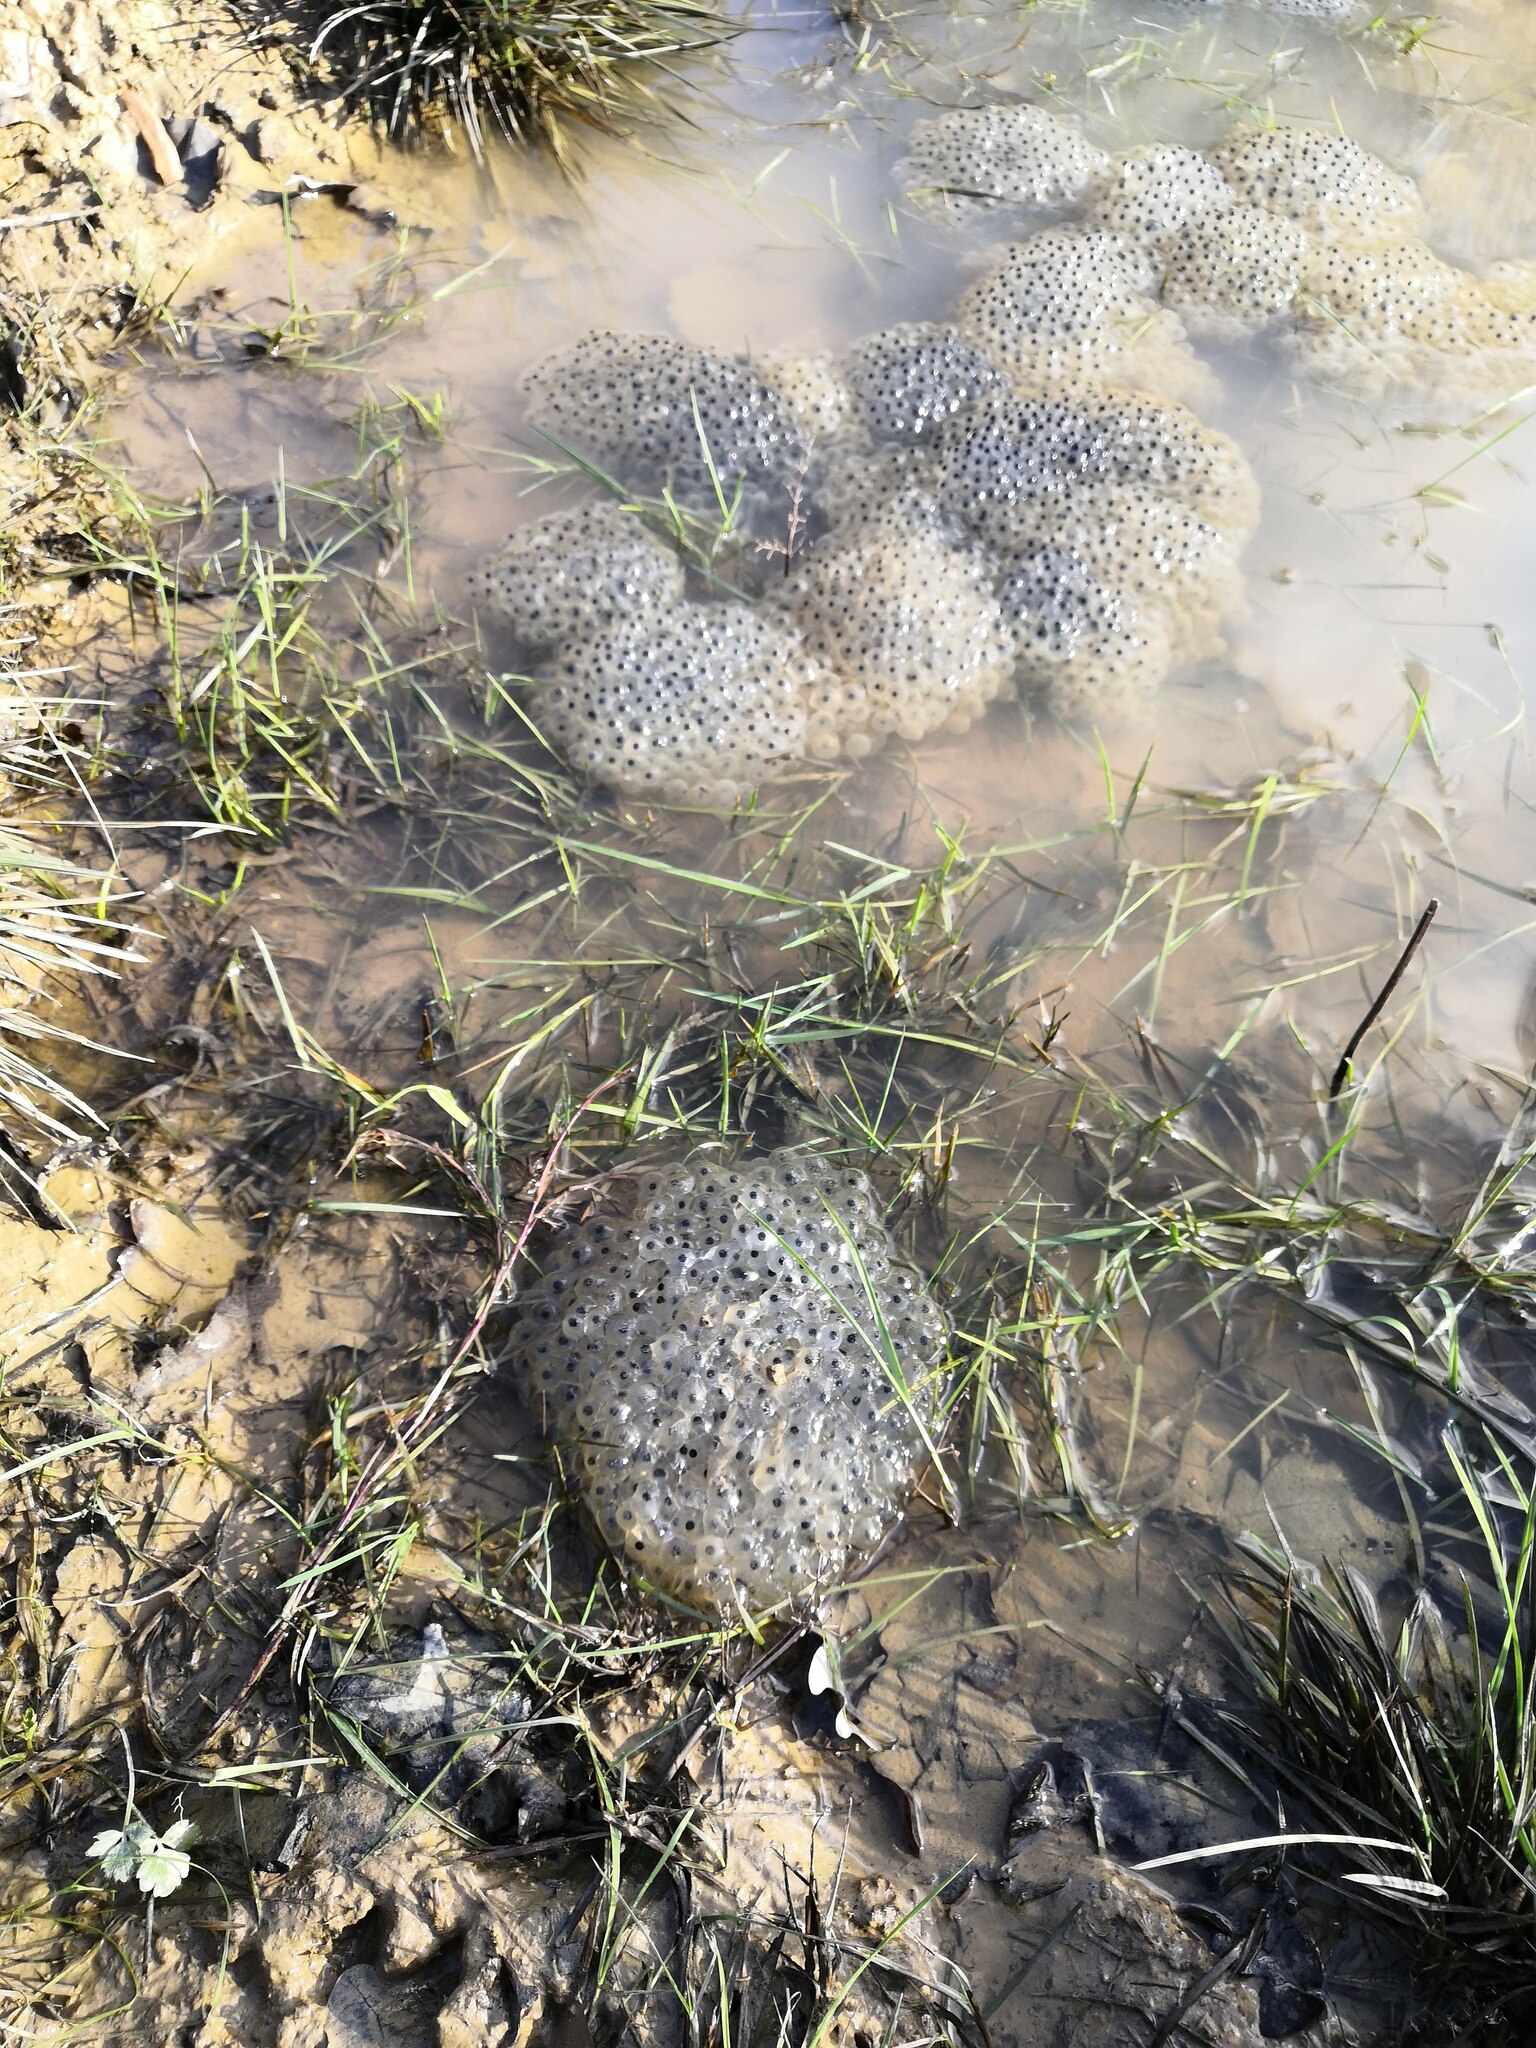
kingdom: Animalia
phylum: Chordata
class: Amphibia
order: Anura
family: Ranidae
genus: Rana
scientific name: Rana temporaria
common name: Common frog
